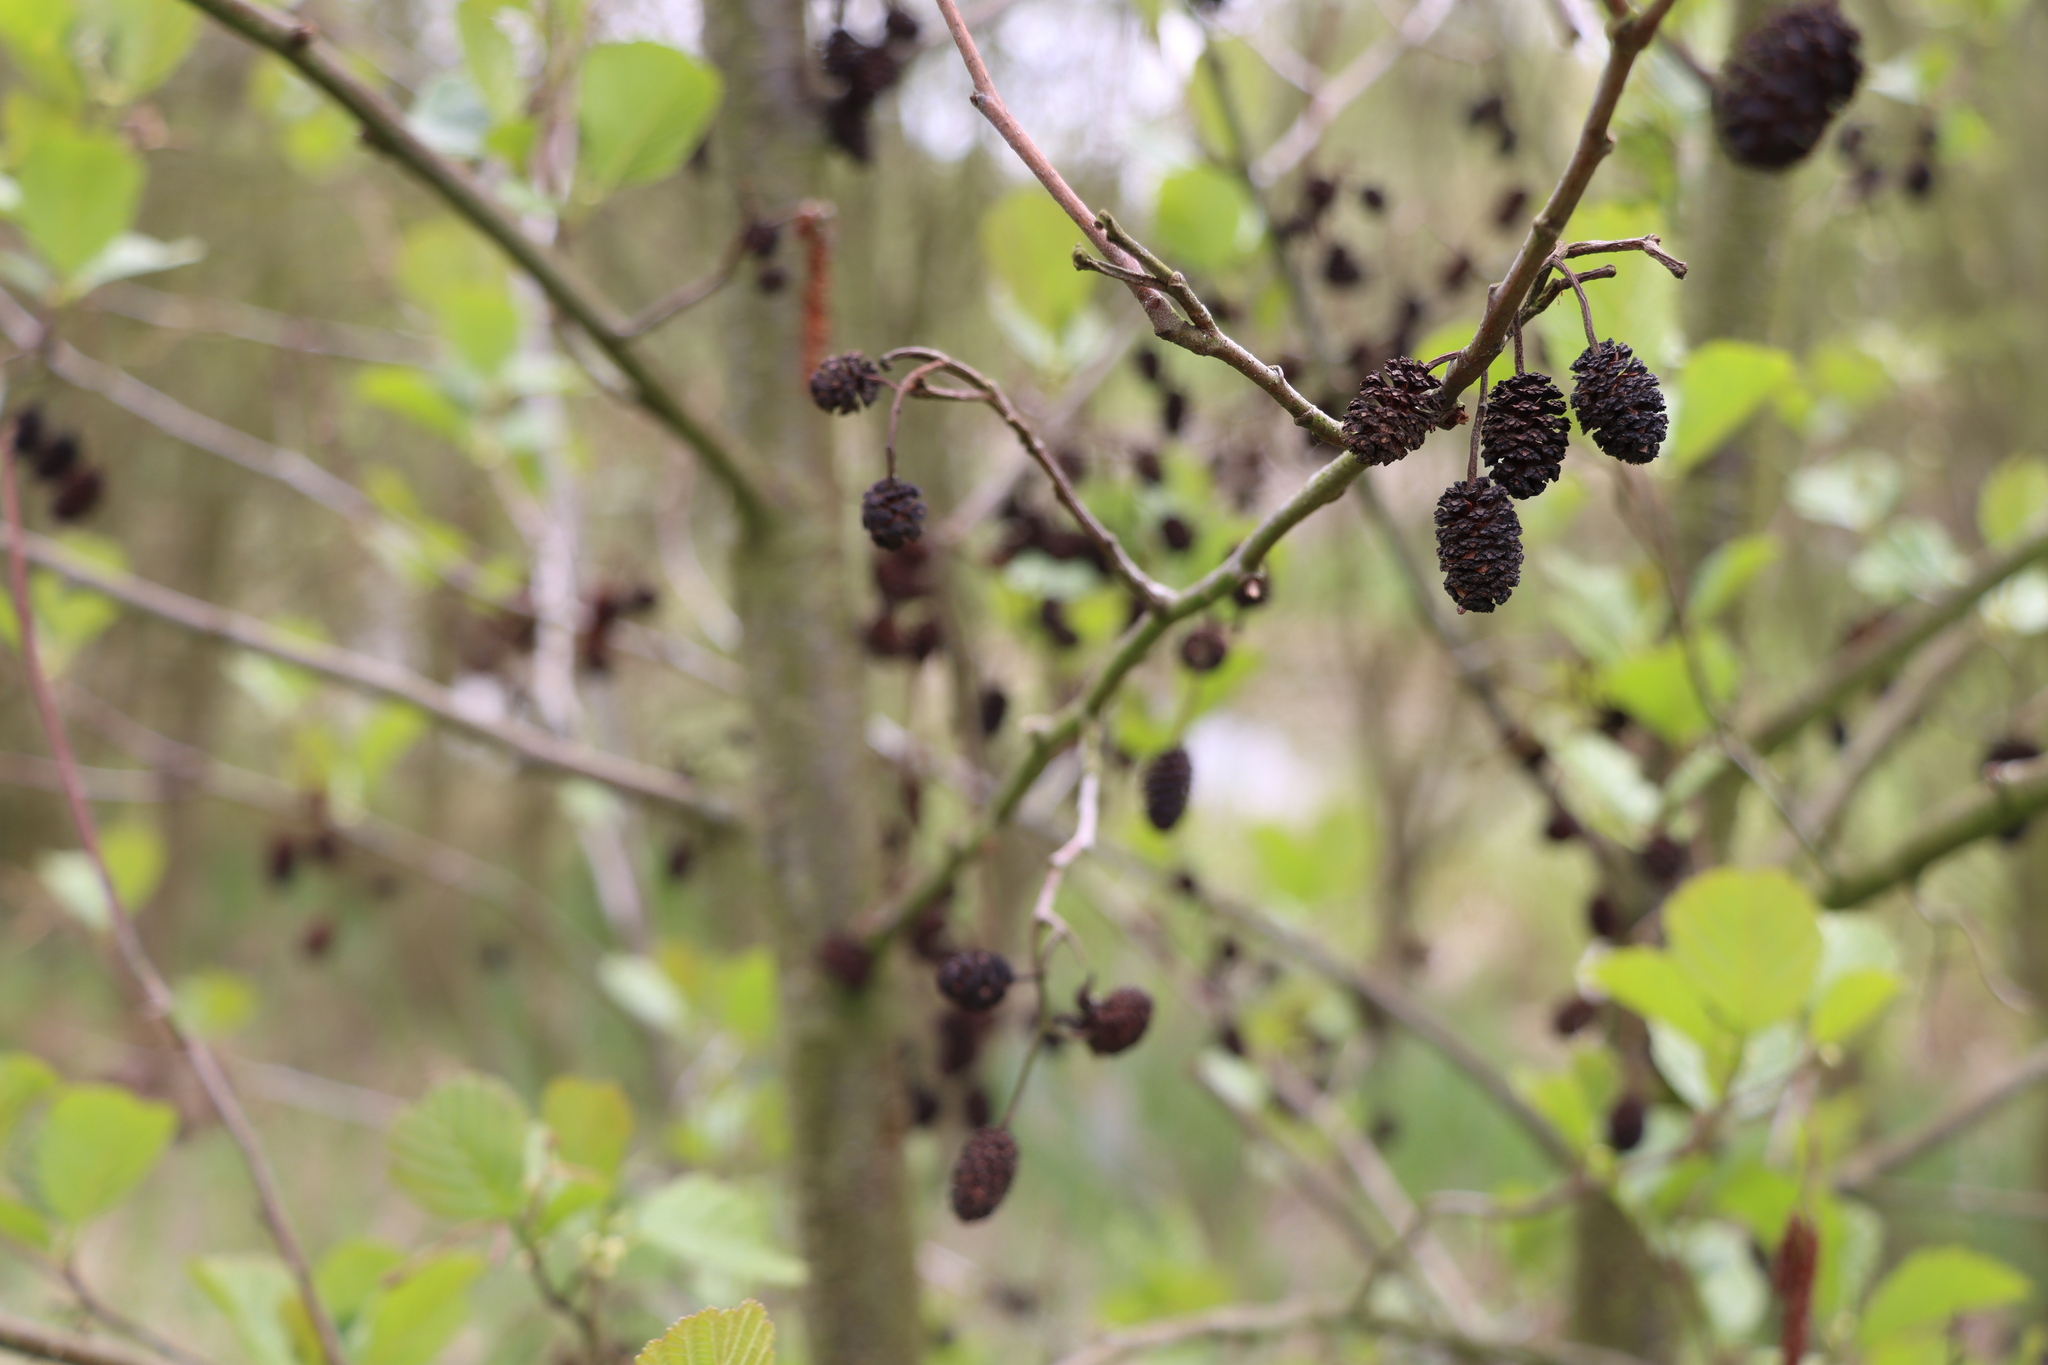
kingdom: Plantae
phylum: Tracheophyta
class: Magnoliopsida
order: Fagales
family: Betulaceae
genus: Alnus
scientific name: Alnus glutinosa
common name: Black alder
